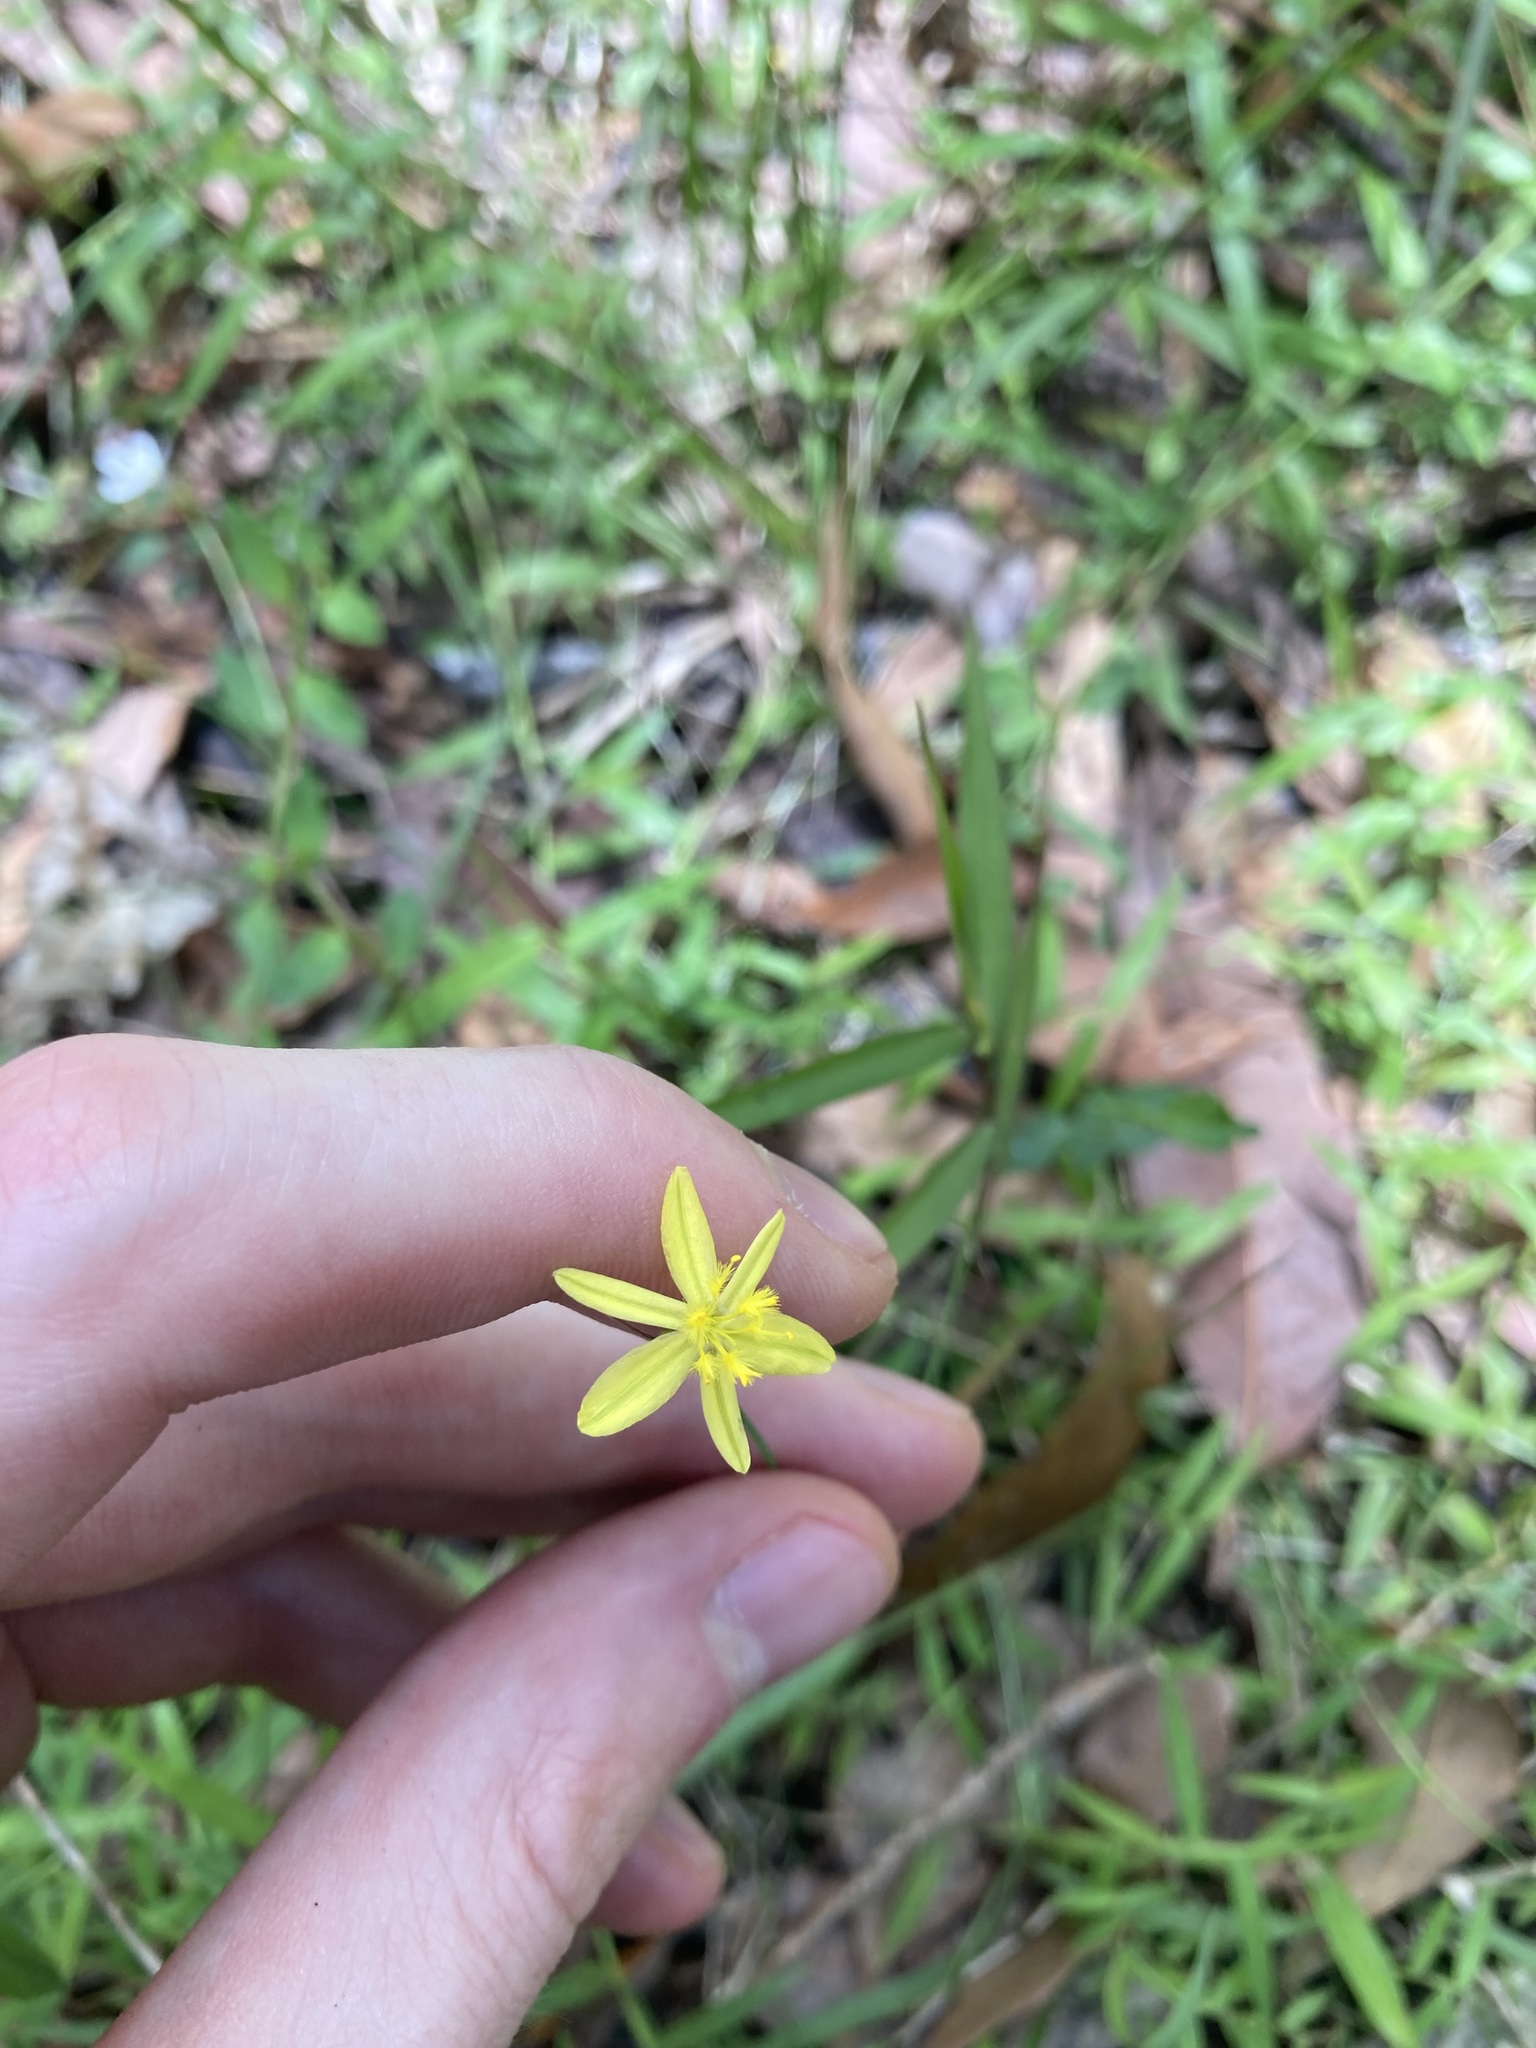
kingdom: Plantae
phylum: Tracheophyta
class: Liliopsida
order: Asparagales
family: Asphodelaceae
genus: Tricoryne
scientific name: Tricoryne elatior
